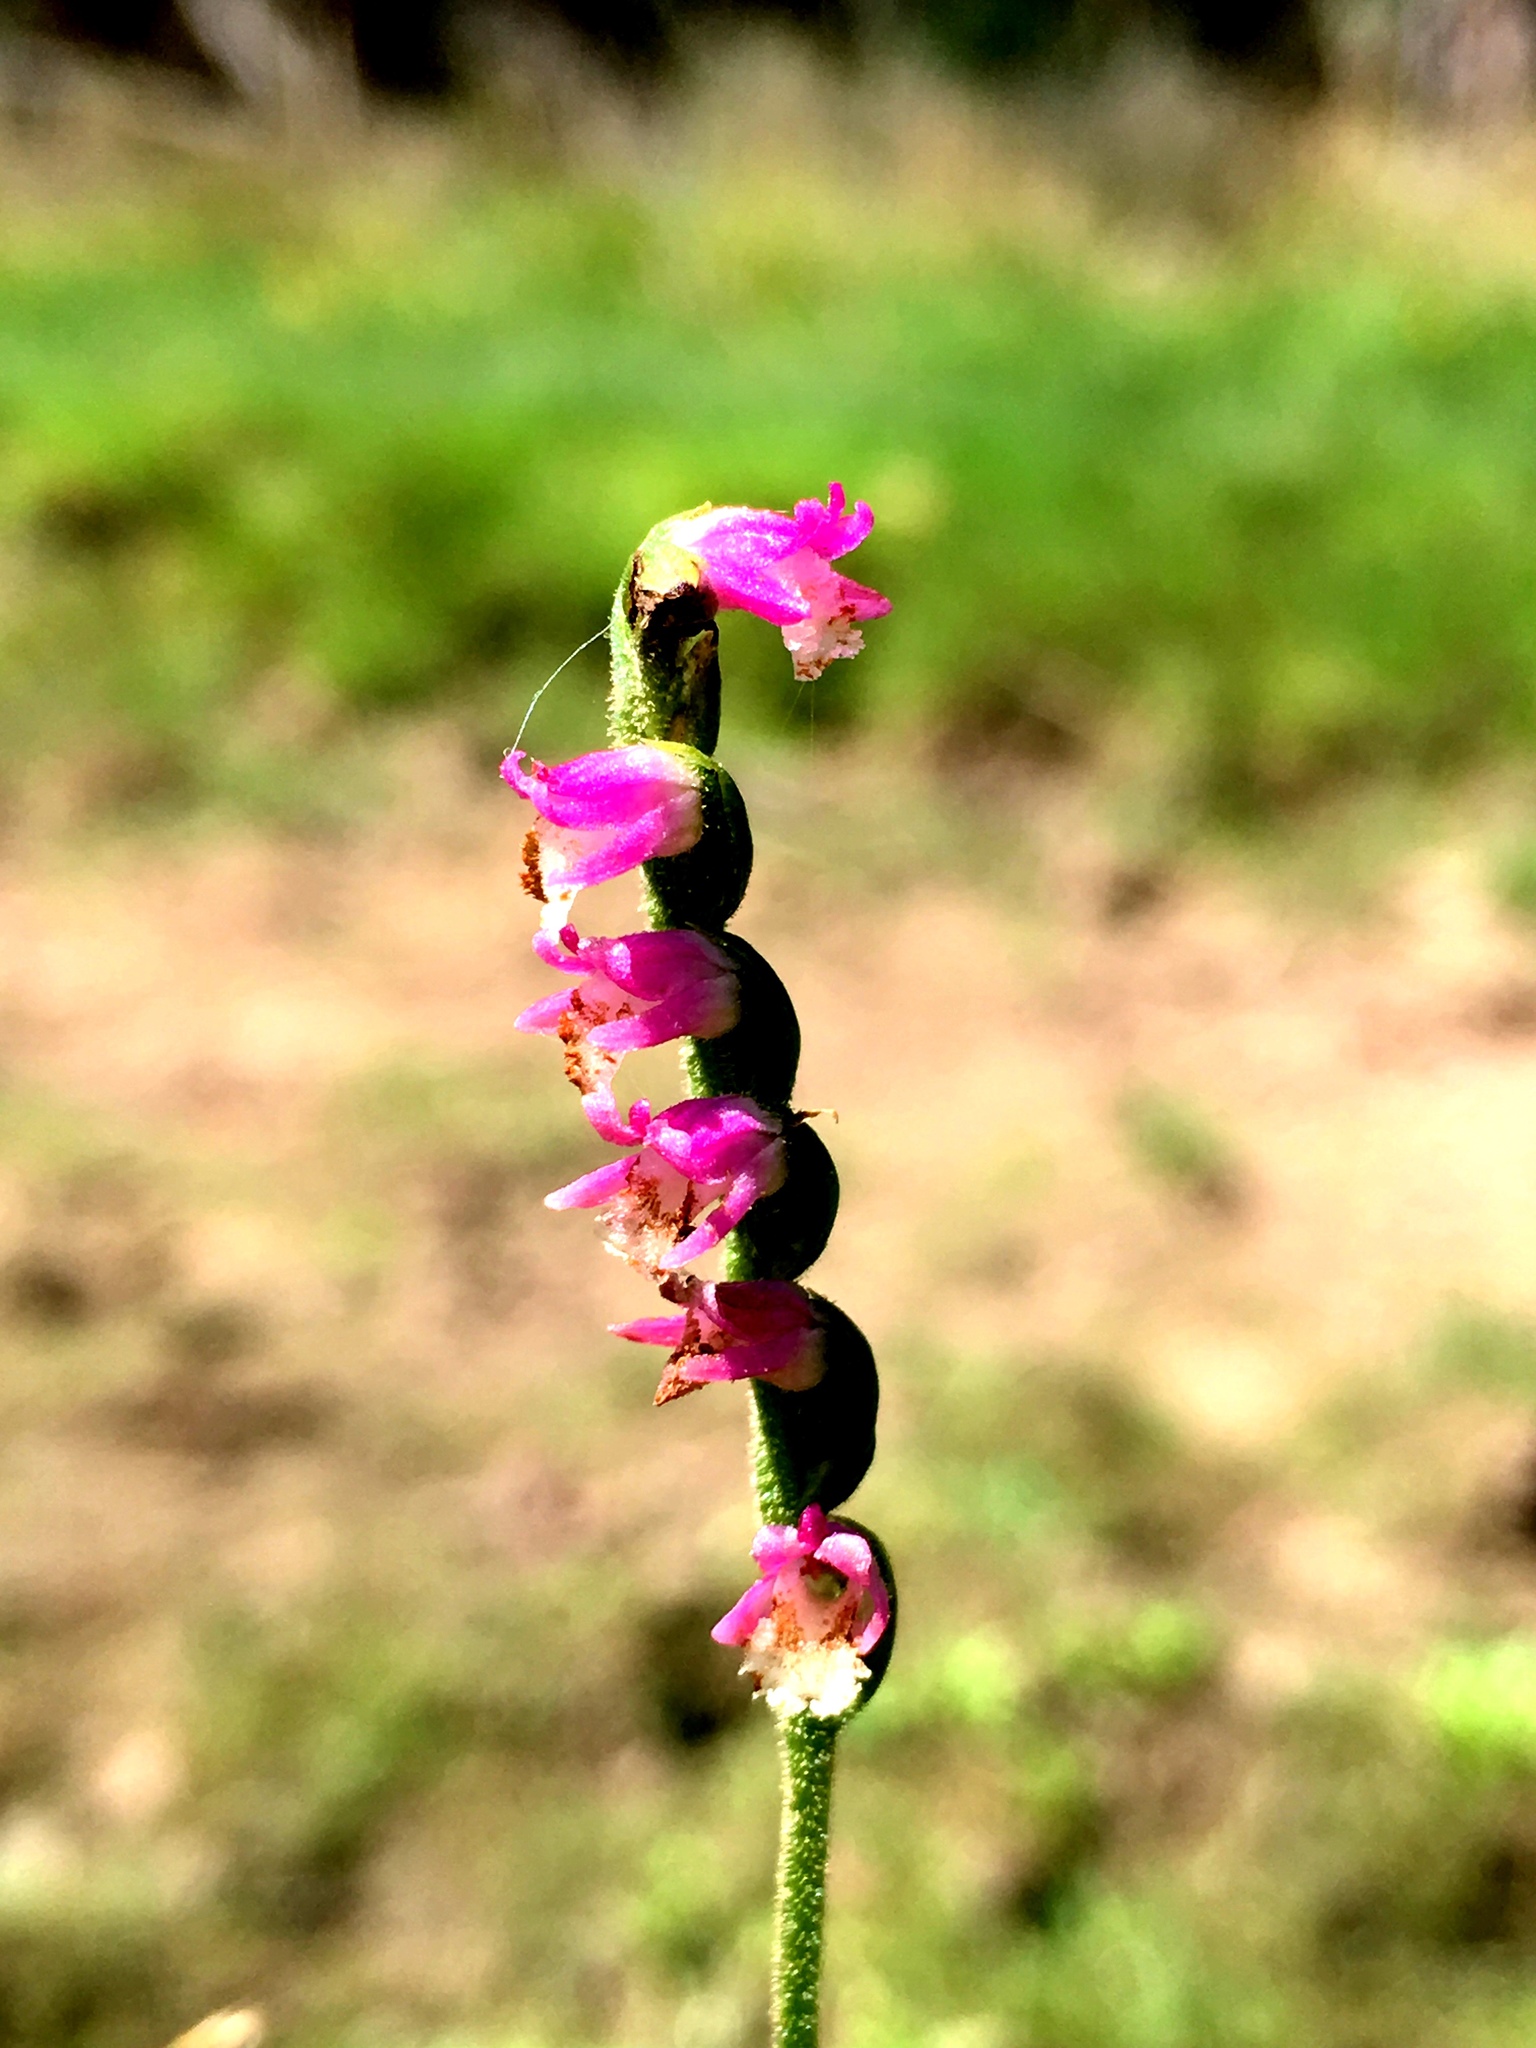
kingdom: Plantae
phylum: Tracheophyta
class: Liliopsida
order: Asparagales
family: Orchidaceae
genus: Spiranthes
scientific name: Spiranthes australis
